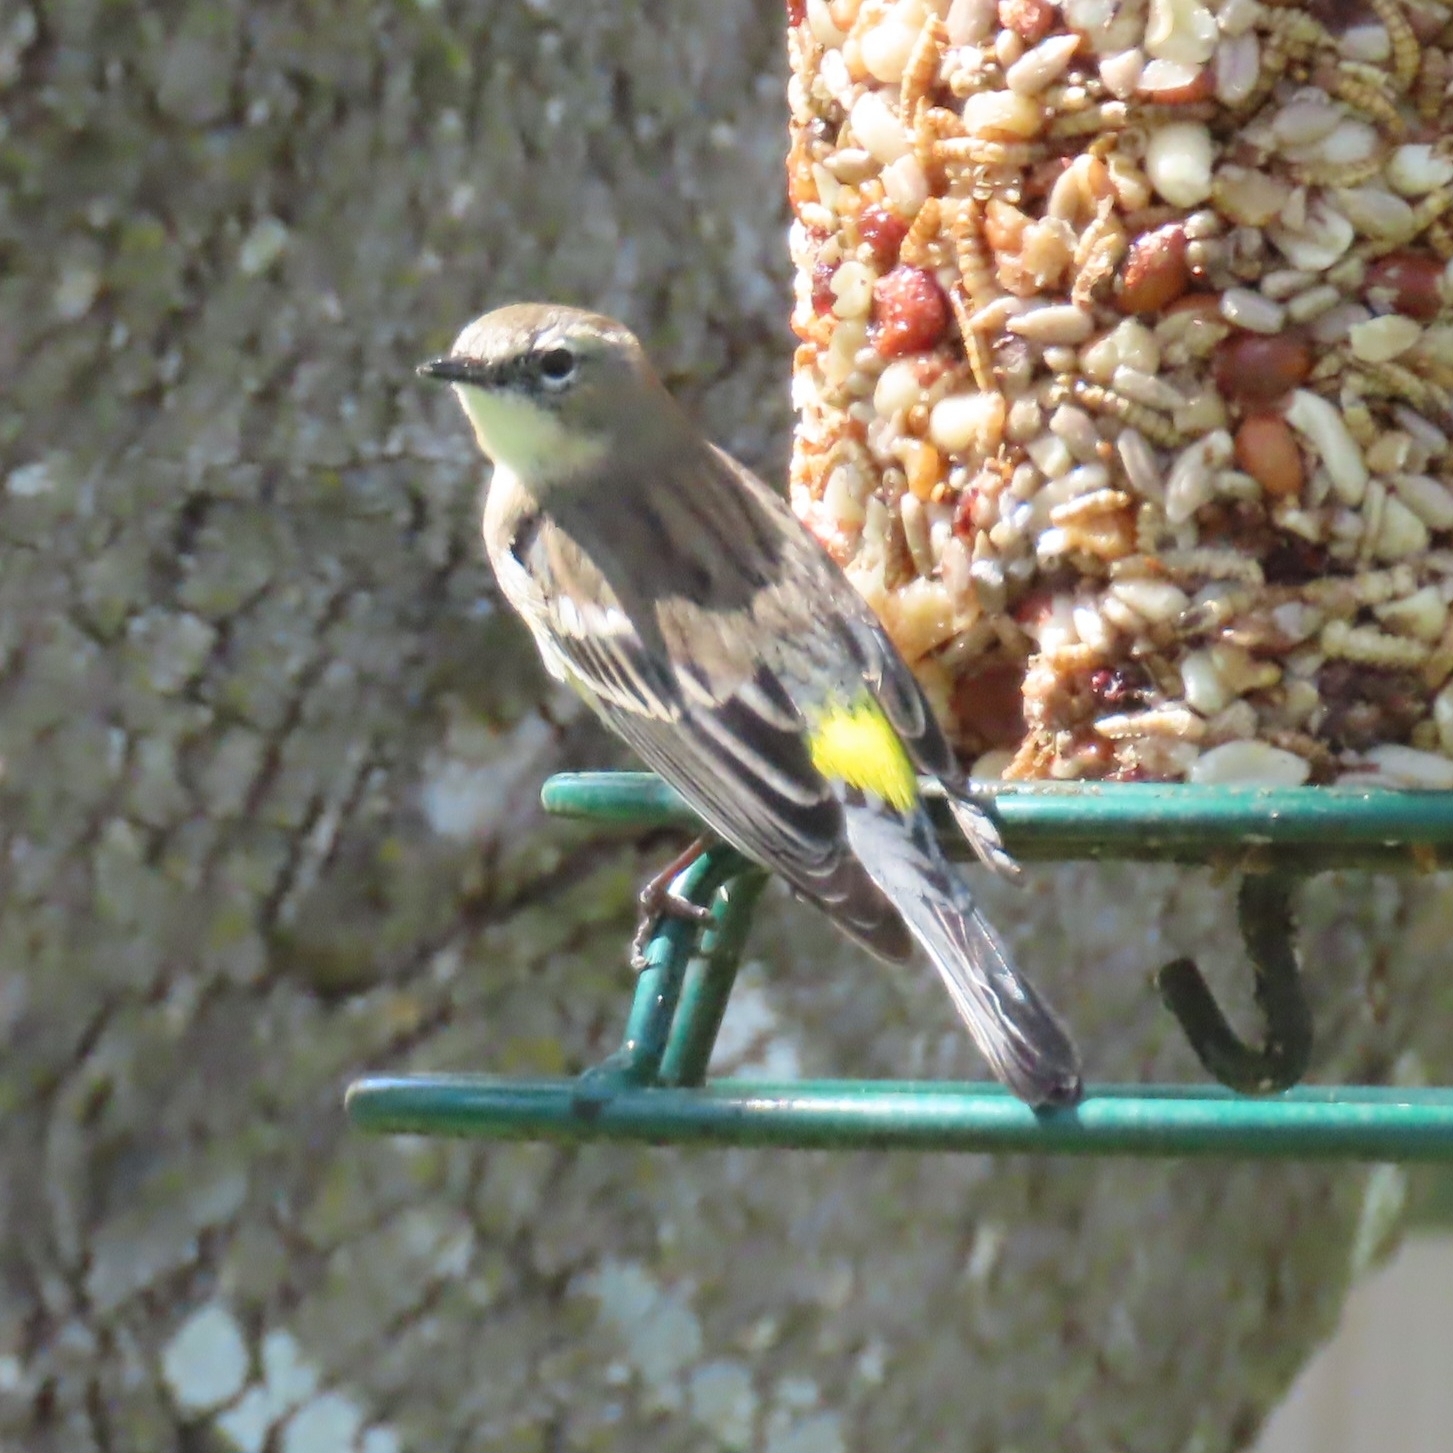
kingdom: Animalia
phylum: Chordata
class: Aves
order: Passeriformes
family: Parulidae
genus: Setophaga
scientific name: Setophaga coronata
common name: Myrtle warbler
